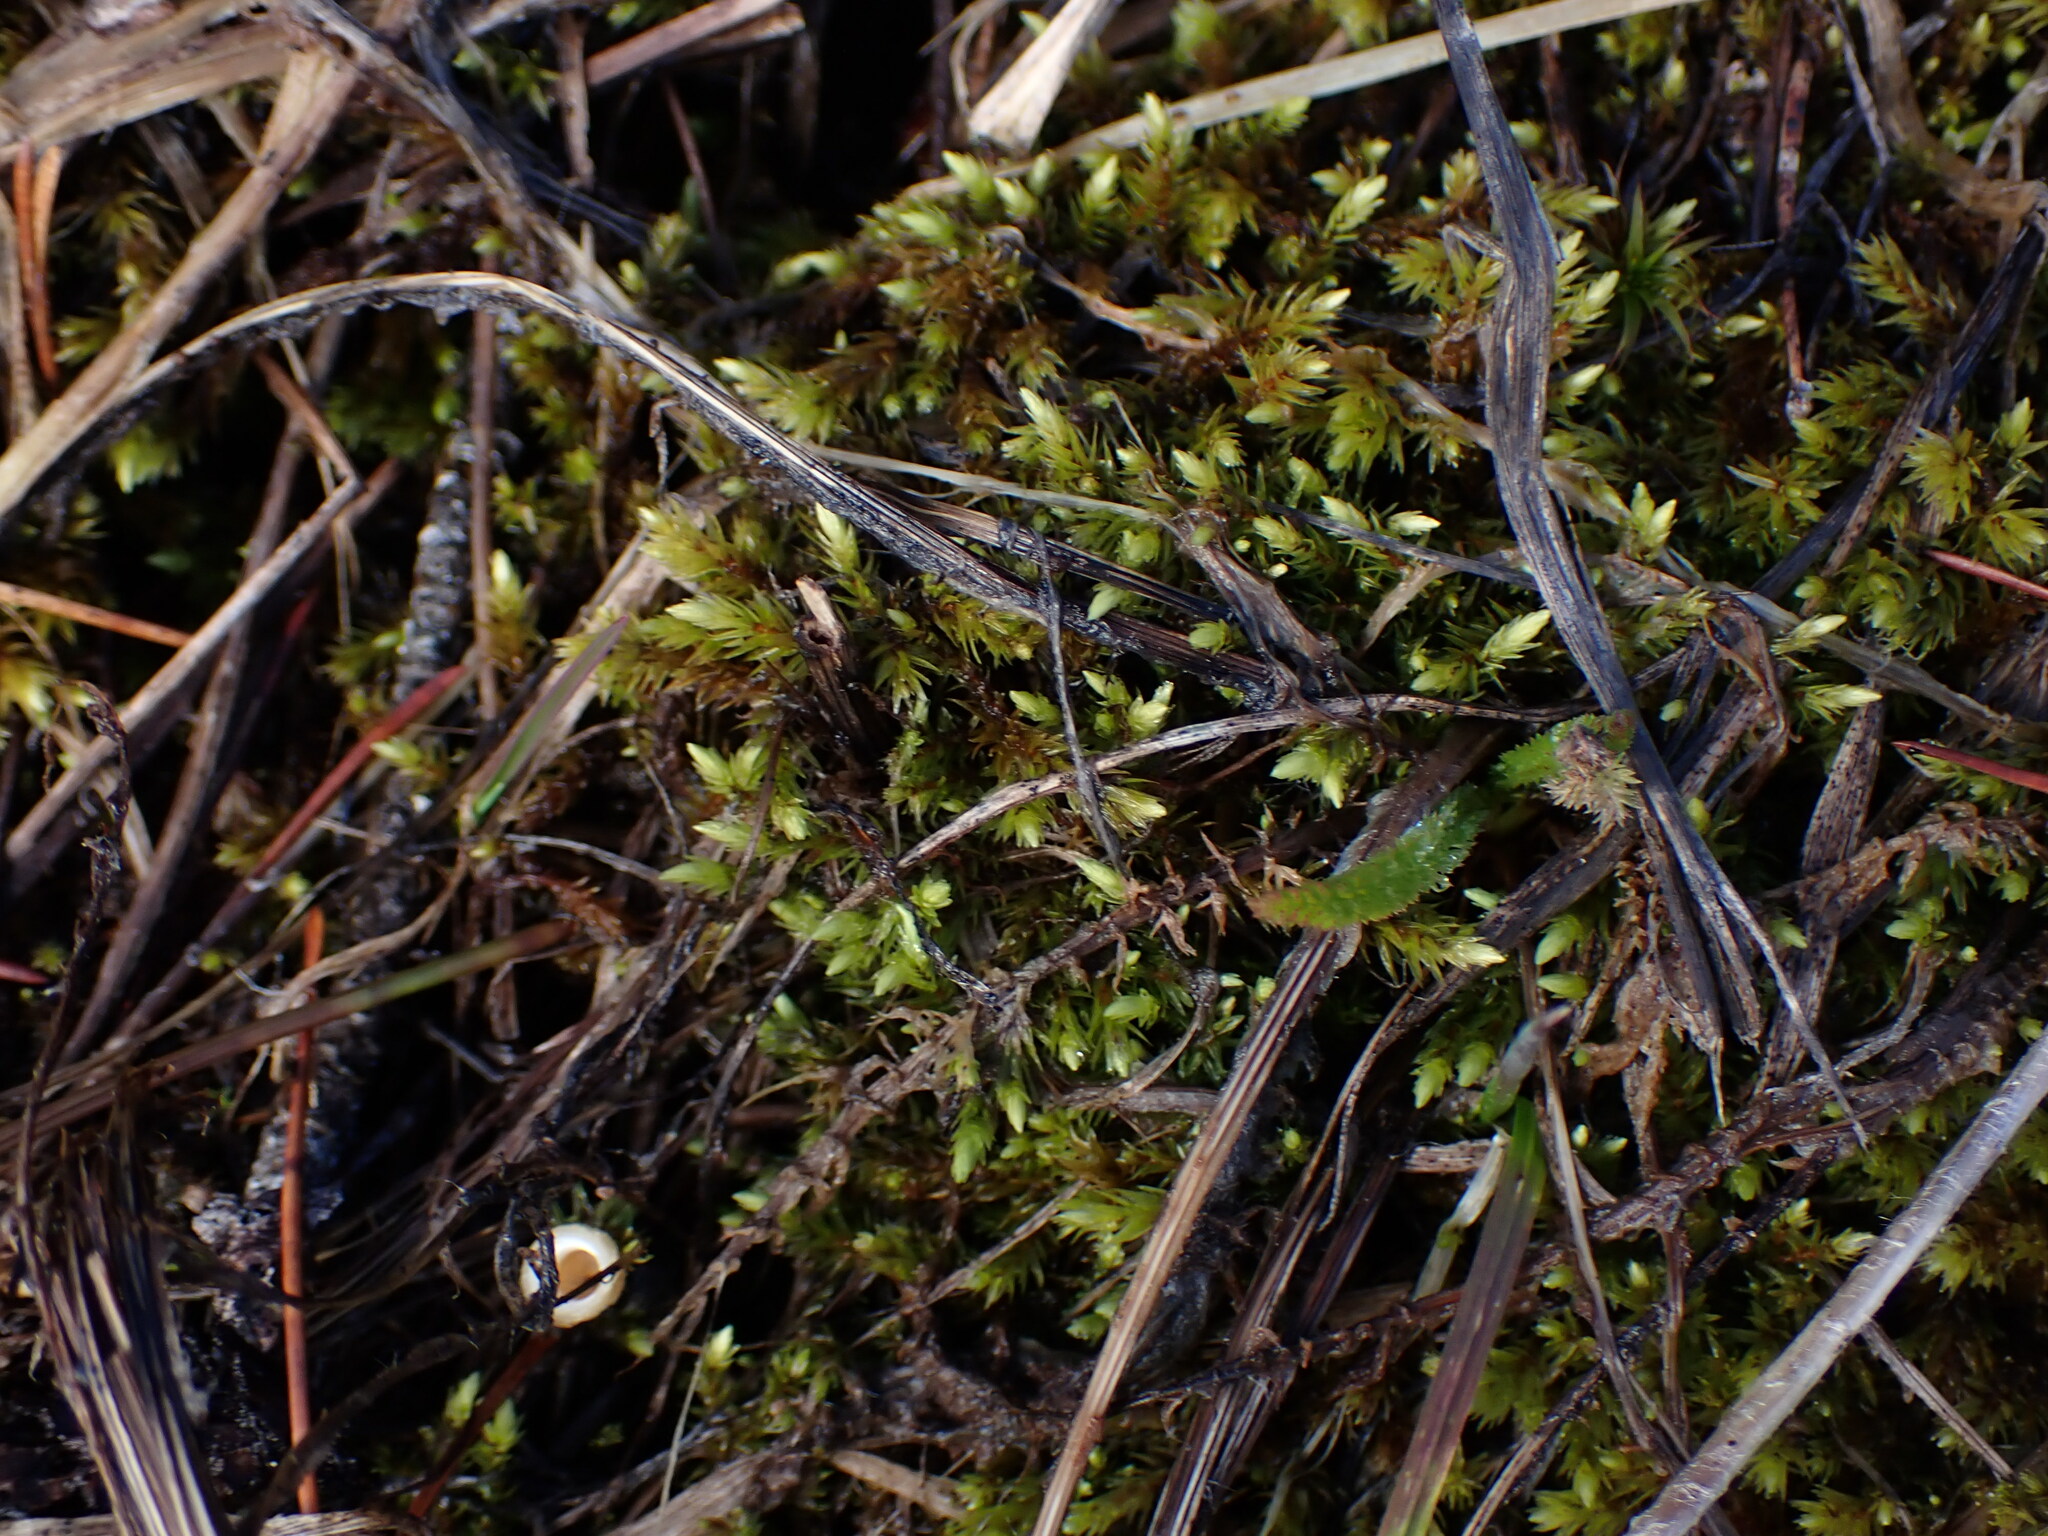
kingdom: Plantae
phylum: Bryophyta
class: Bryopsida
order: Aulacomniales
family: Aulacomniaceae
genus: Aulacomnium
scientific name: Aulacomnium palustre
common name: Bog groove-moss
